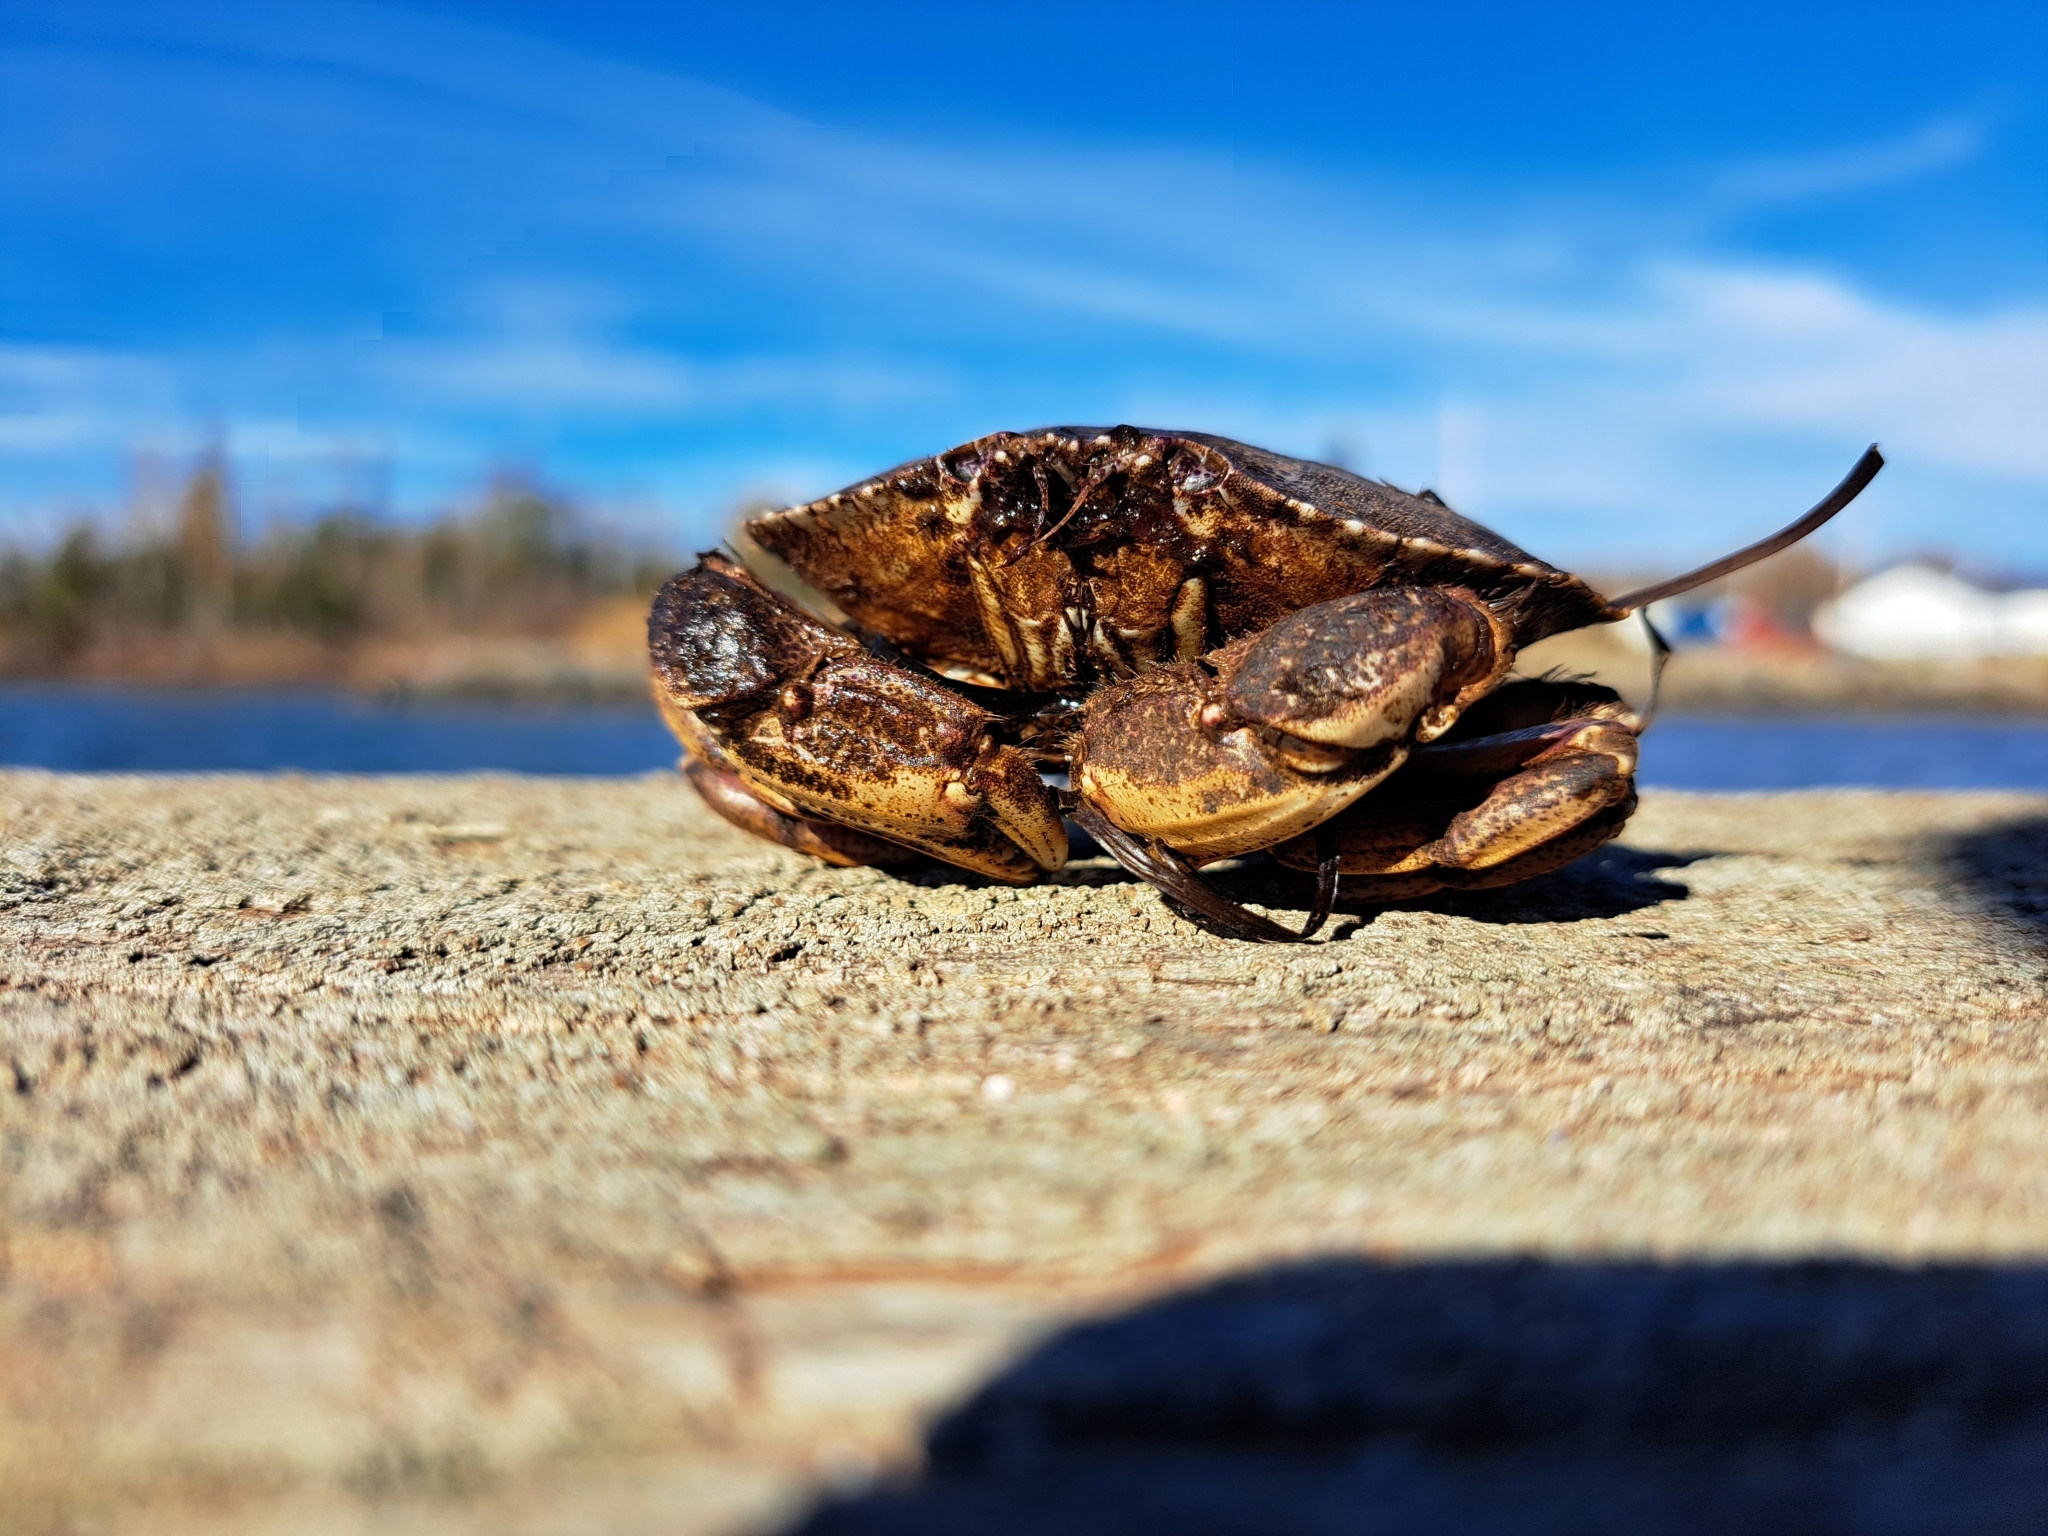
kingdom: Animalia
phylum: Arthropoda
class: Malacostraca
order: Decapoda
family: Cancridae
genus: Cancer
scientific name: Cancer irroratus
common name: Atlantic rock crab
